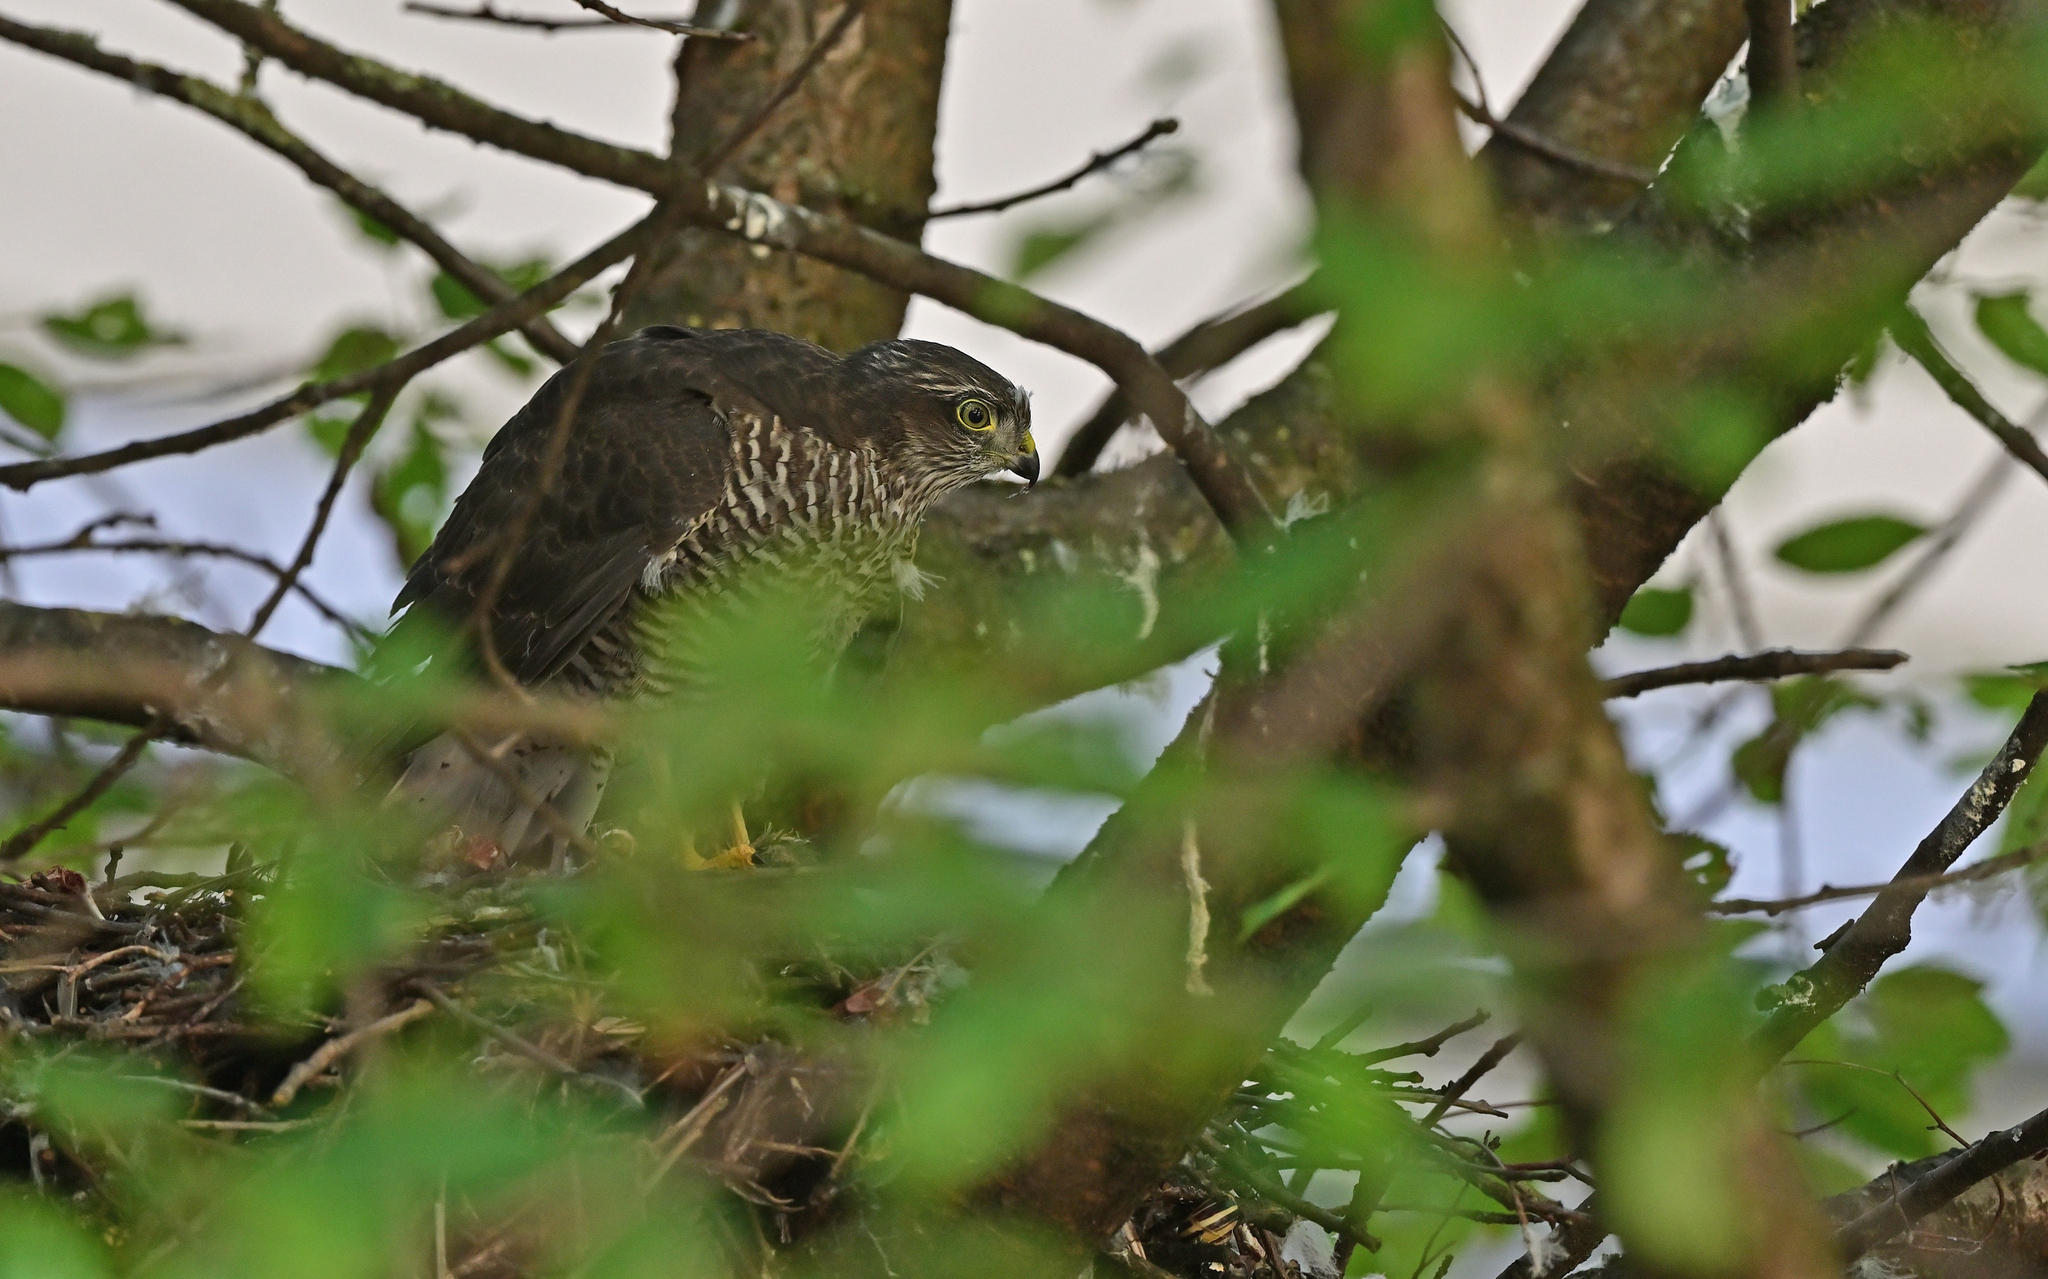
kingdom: Animalia
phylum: Chordata
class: Aves
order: Accipitriformes
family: Accipitridae
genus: Accipiter
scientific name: Accipiter nisus
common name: Eurasian sparrowhawk
